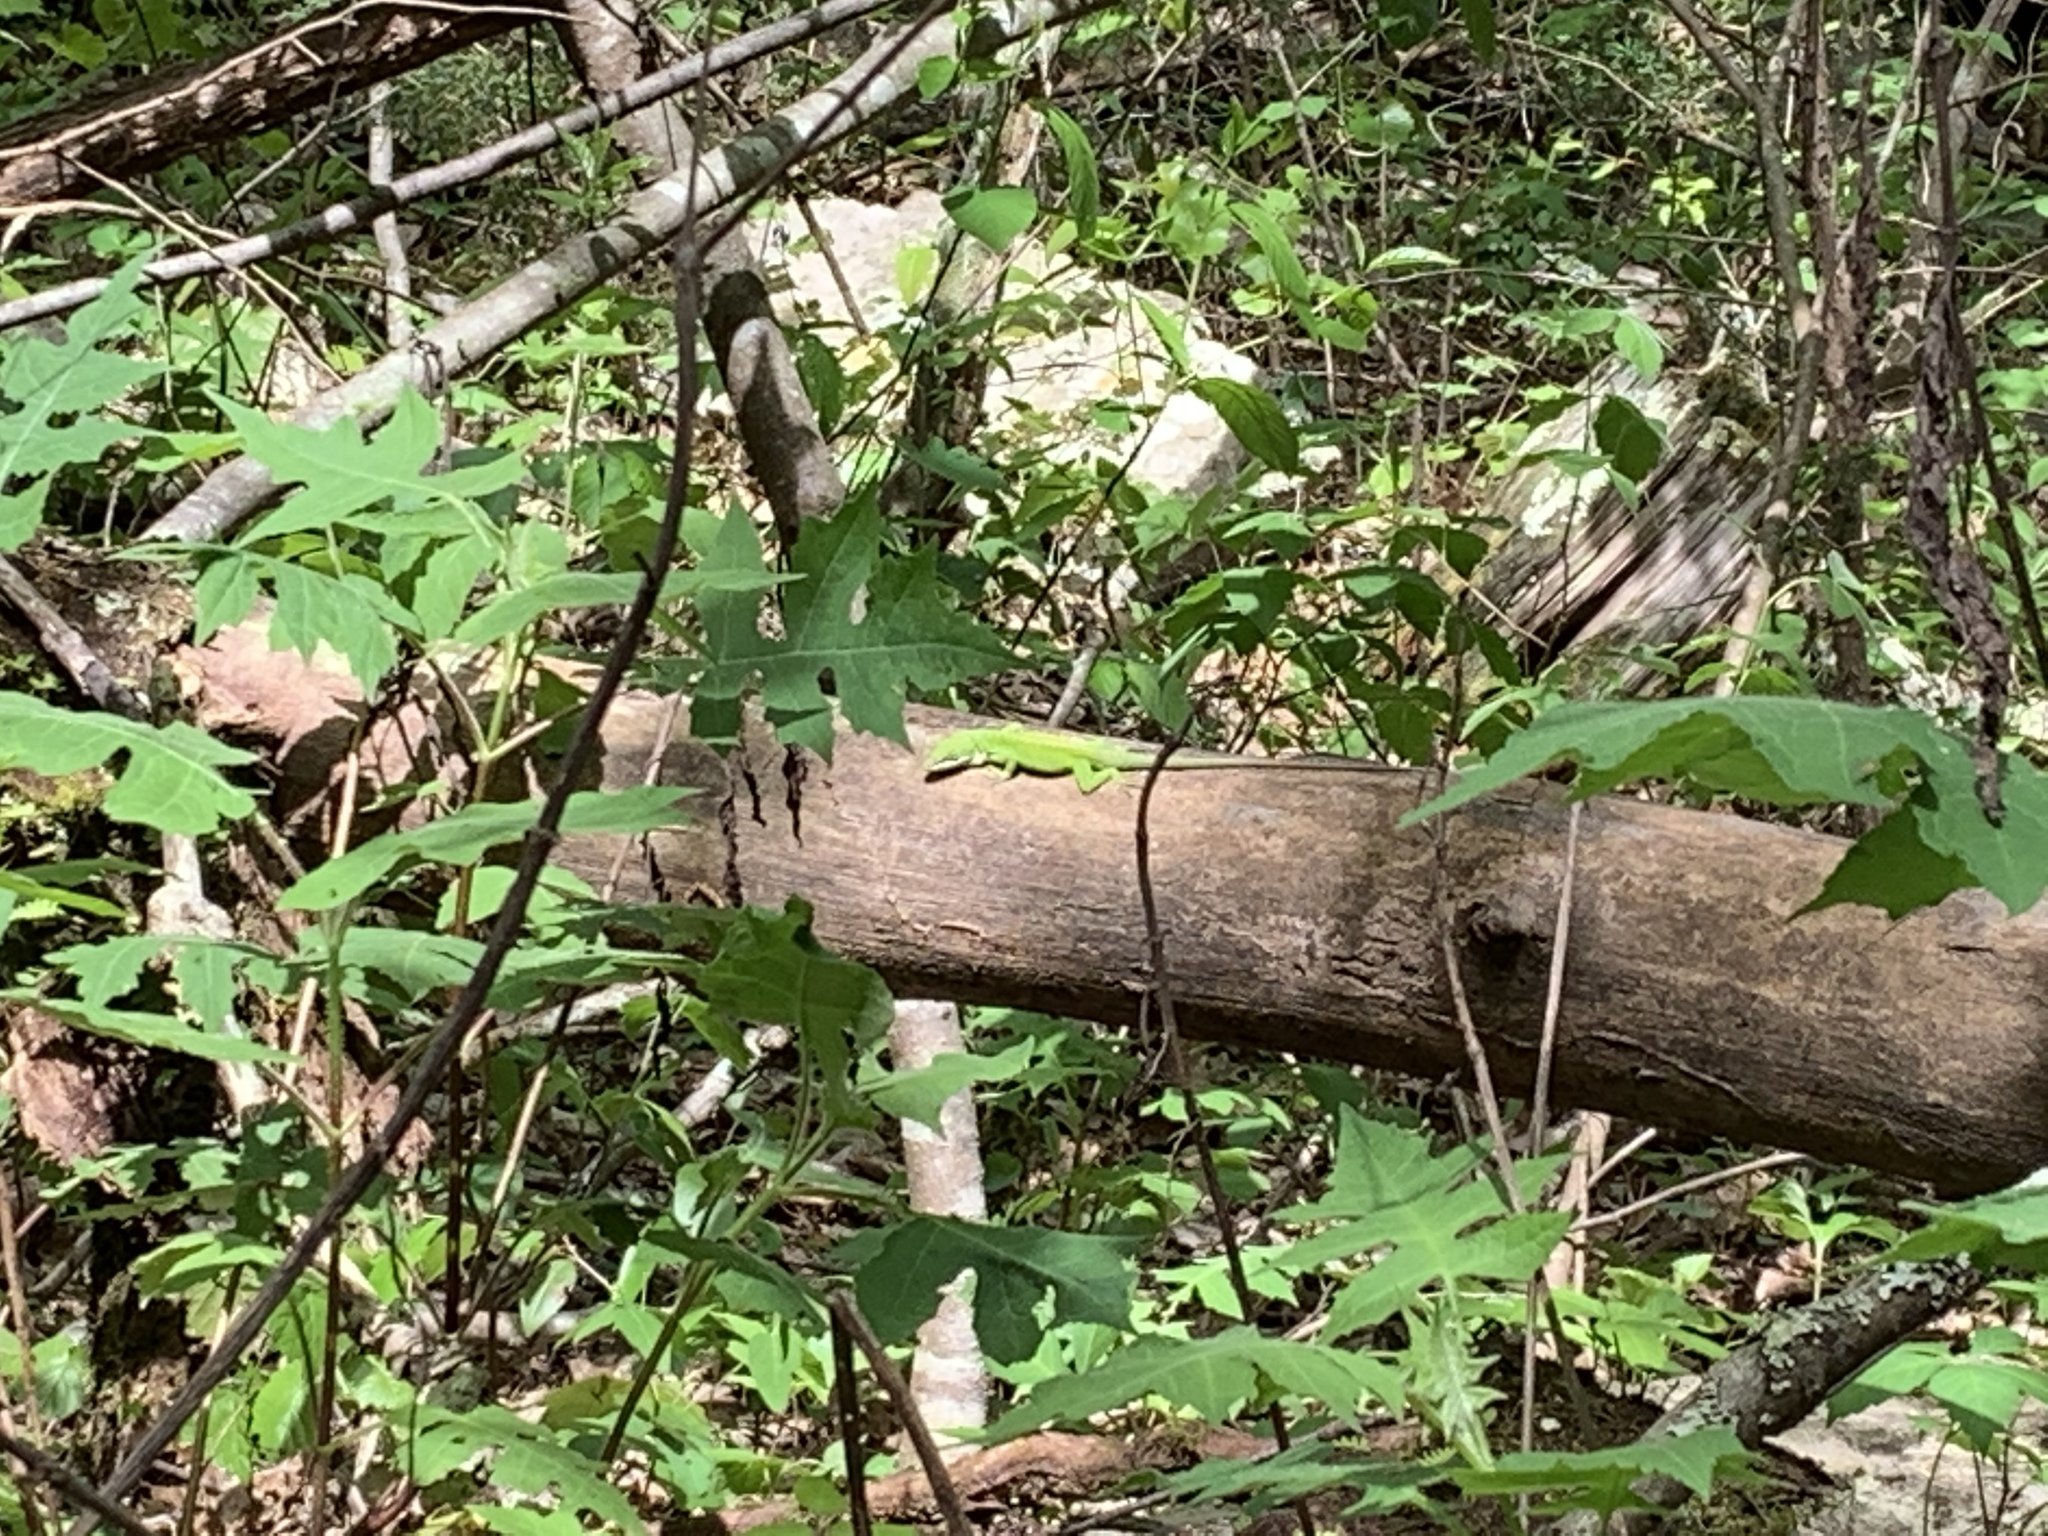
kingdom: Animalia
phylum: Chordata
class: Squamata
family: Dactyloidae
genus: Anolis
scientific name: Anolis carolinensis
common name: Green anole
